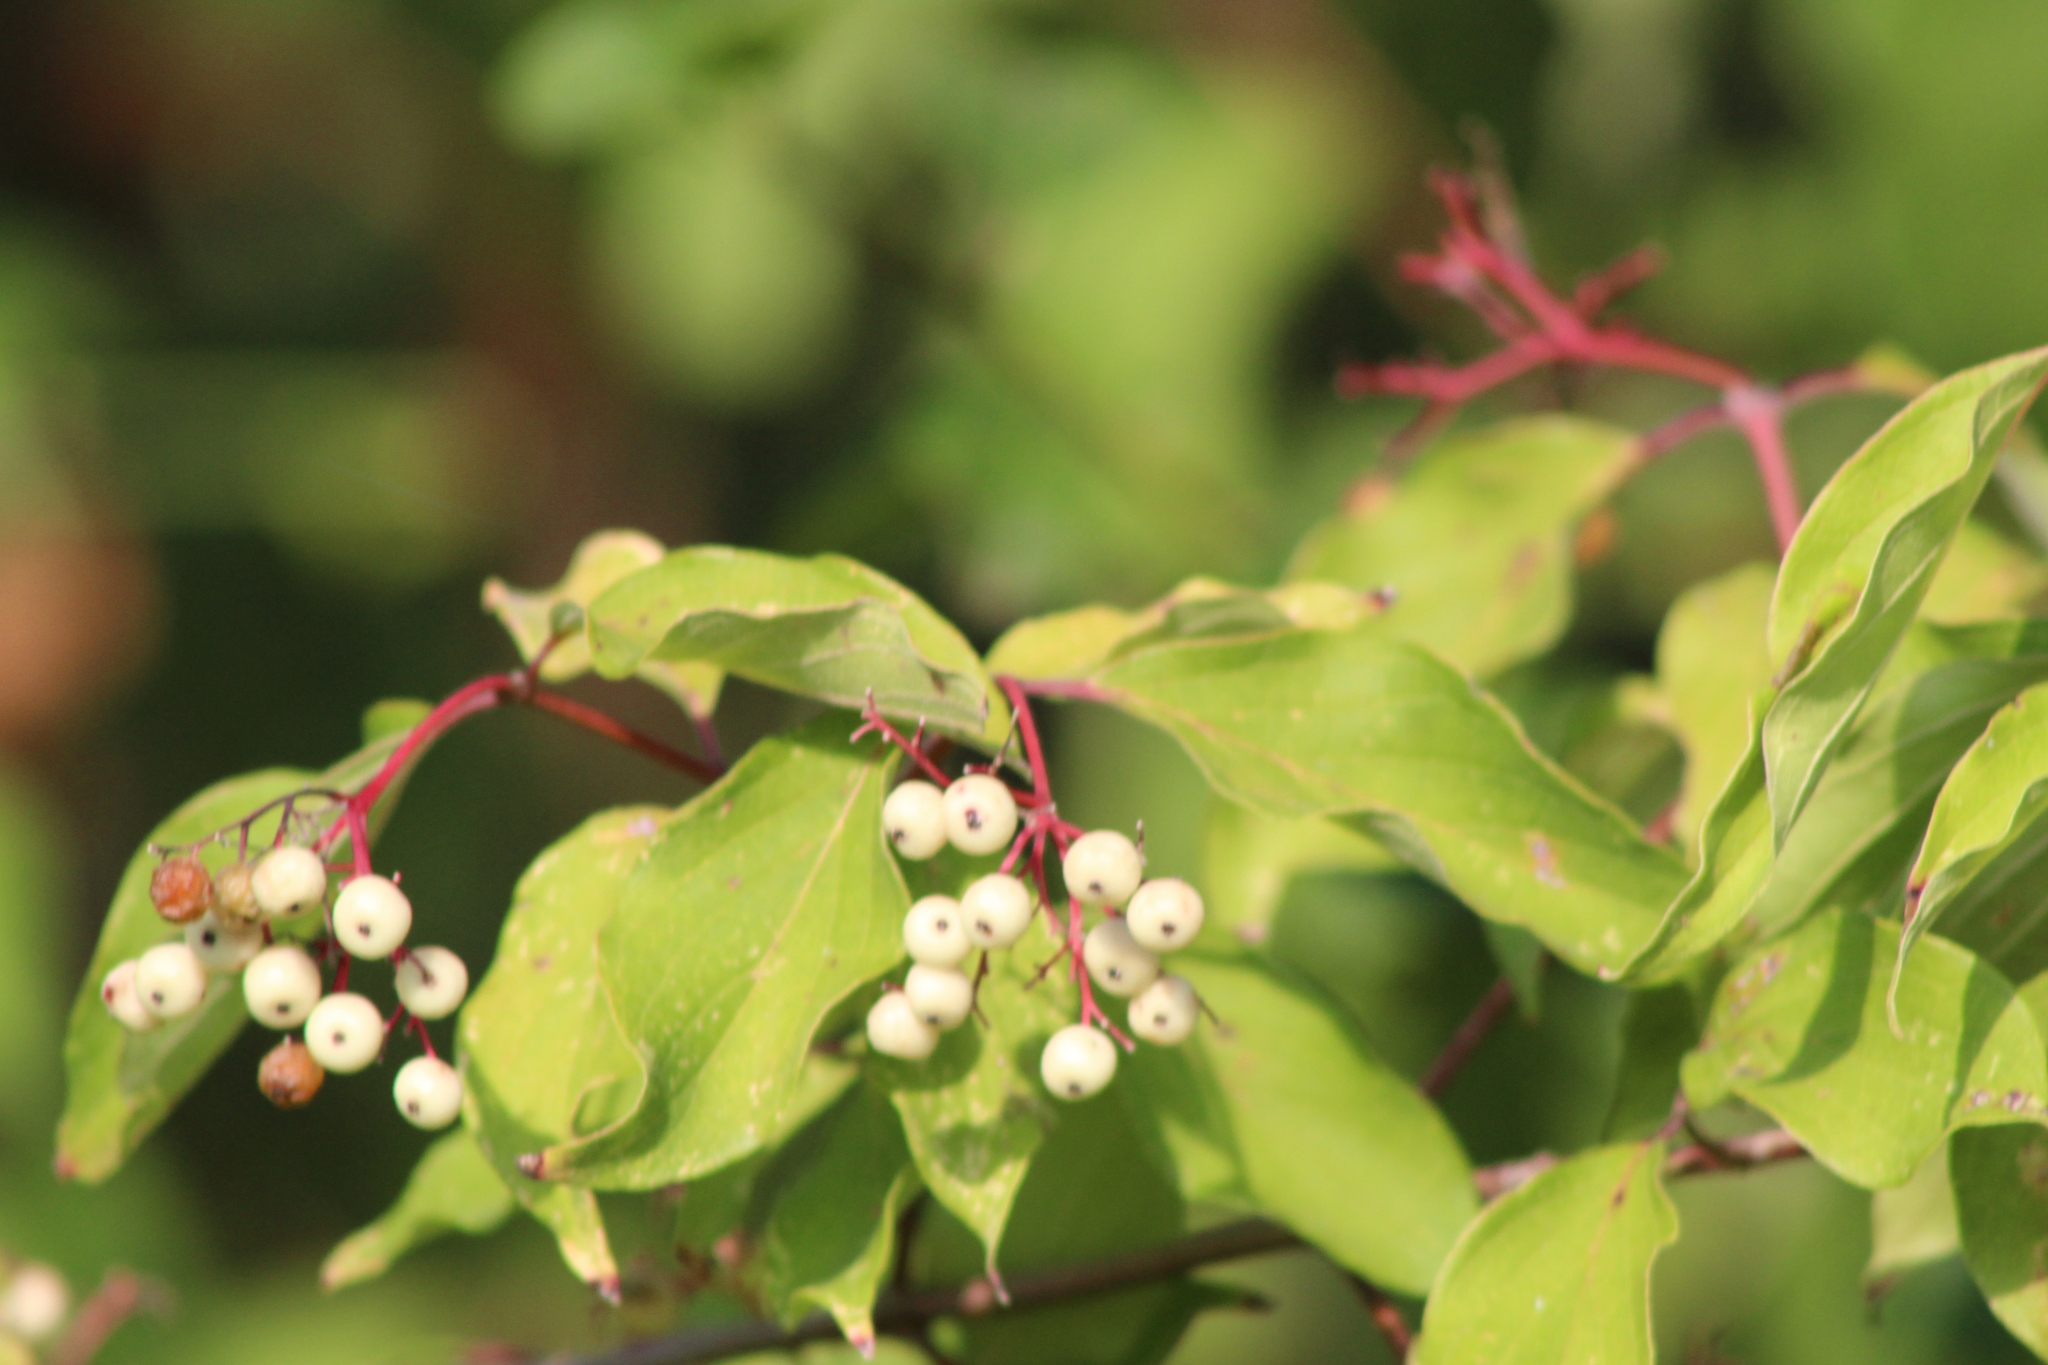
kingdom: Plantae
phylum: Tracheophyta
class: Magnoliopsida
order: Cornales
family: Cornaceae
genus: Cornus
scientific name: Cornus drummondii
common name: Rough-leaf dogwood
